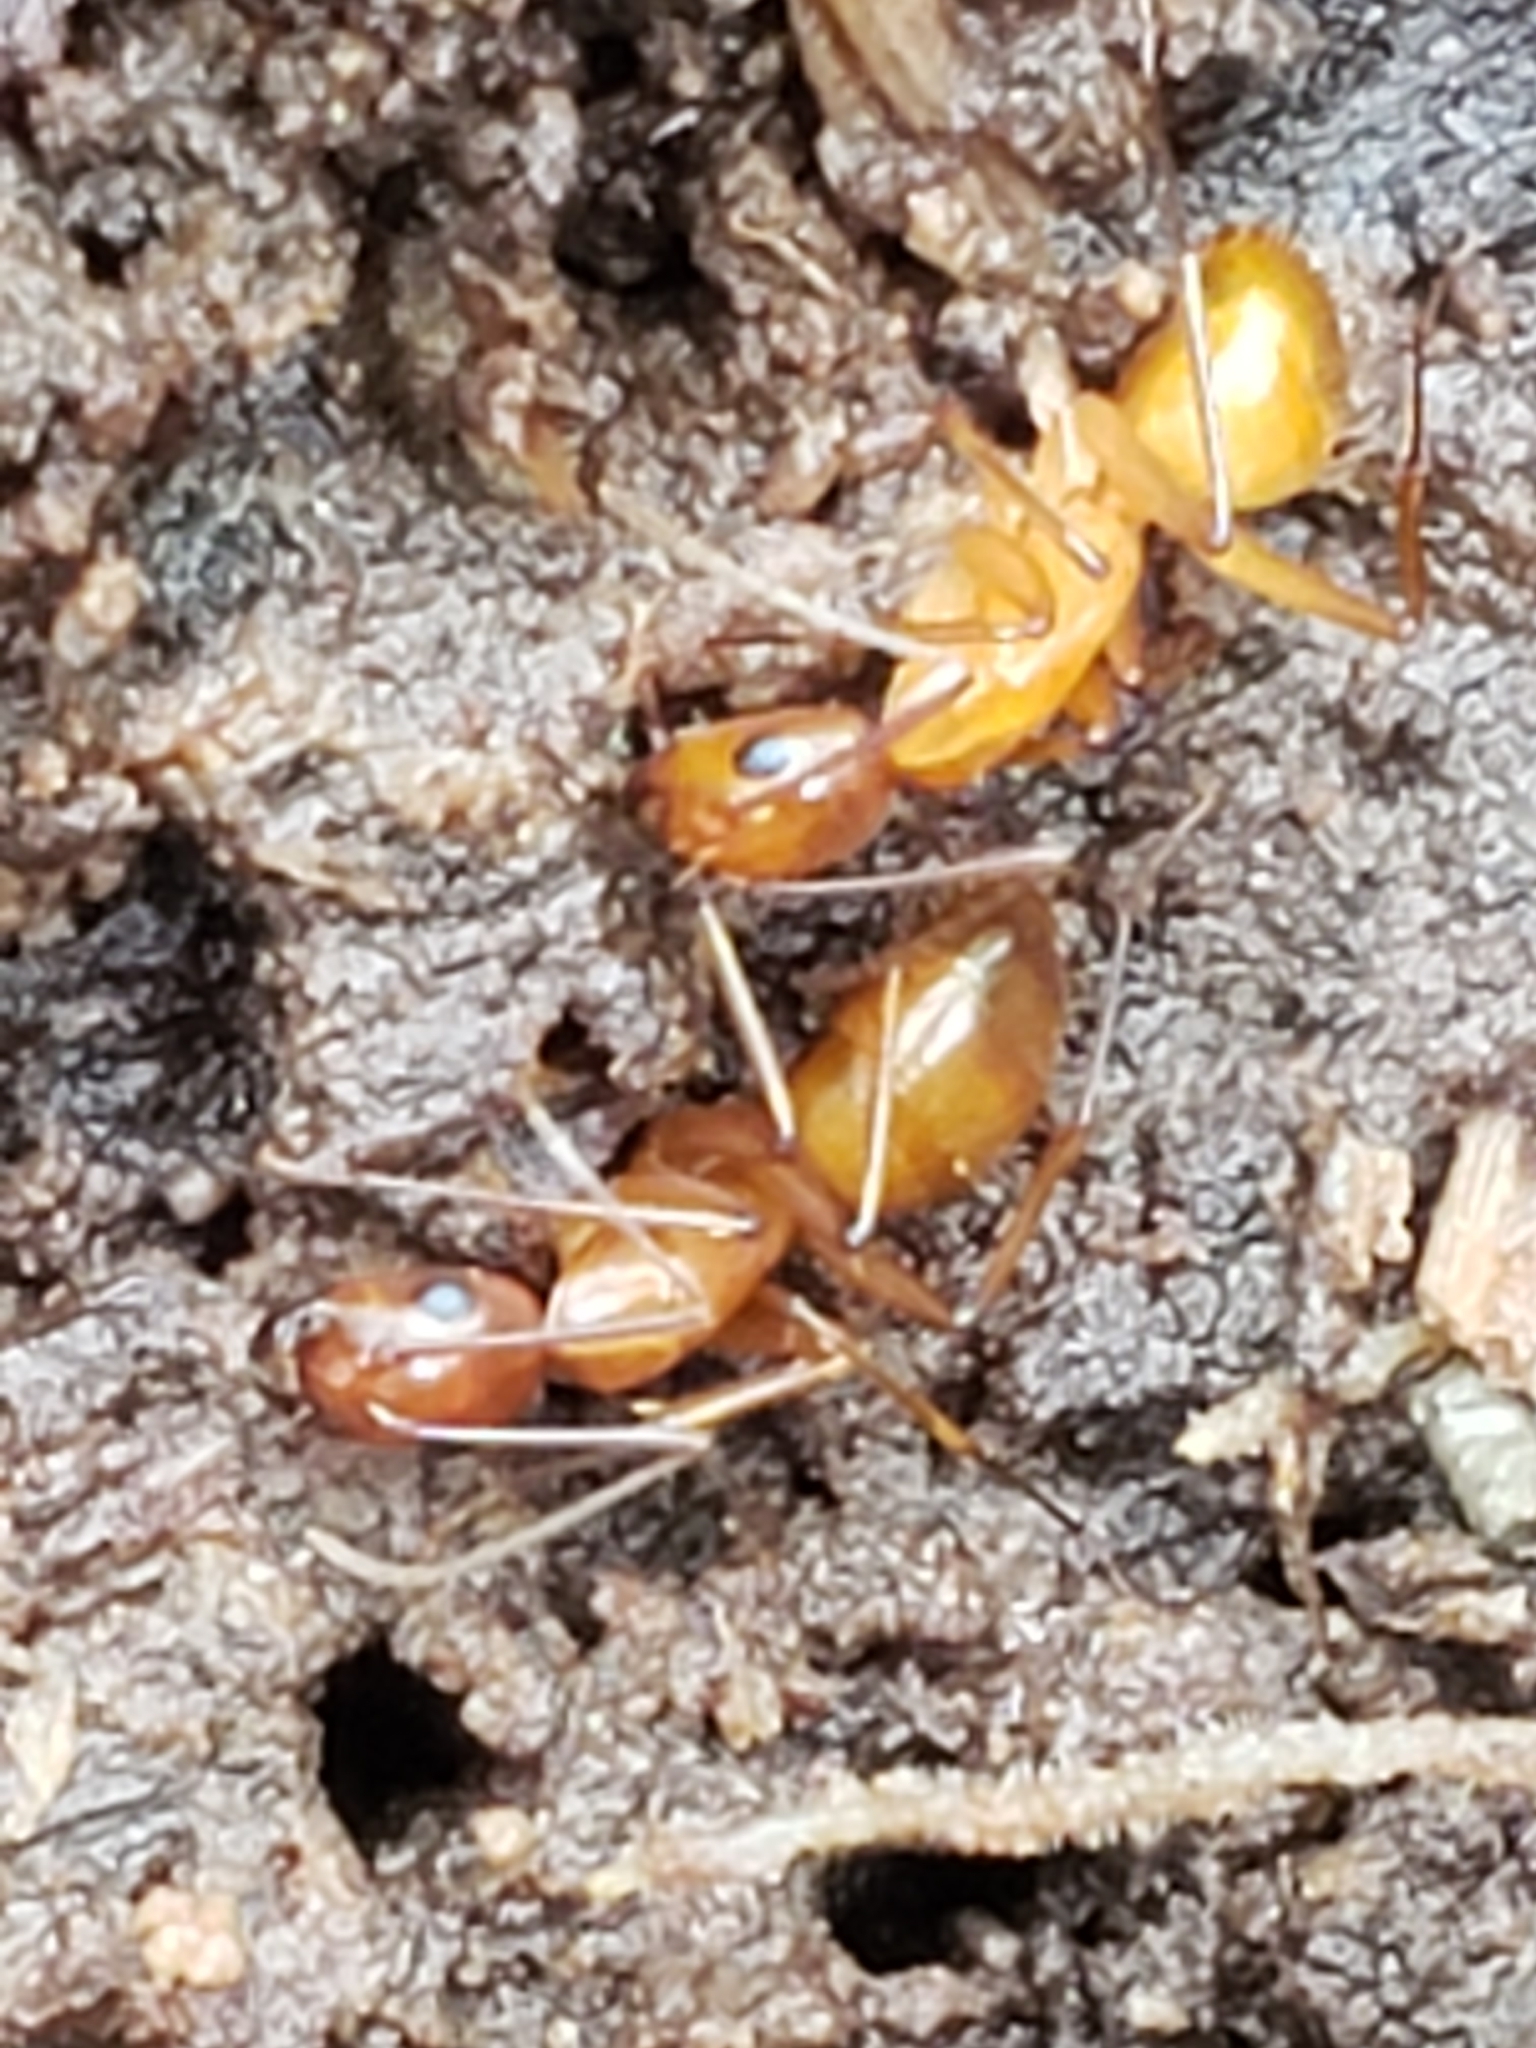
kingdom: Animalia
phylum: Arthropoda
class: Insecta
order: Hymenoptera
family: Formicidae
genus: Camponotus
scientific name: Camponotus castaneus
